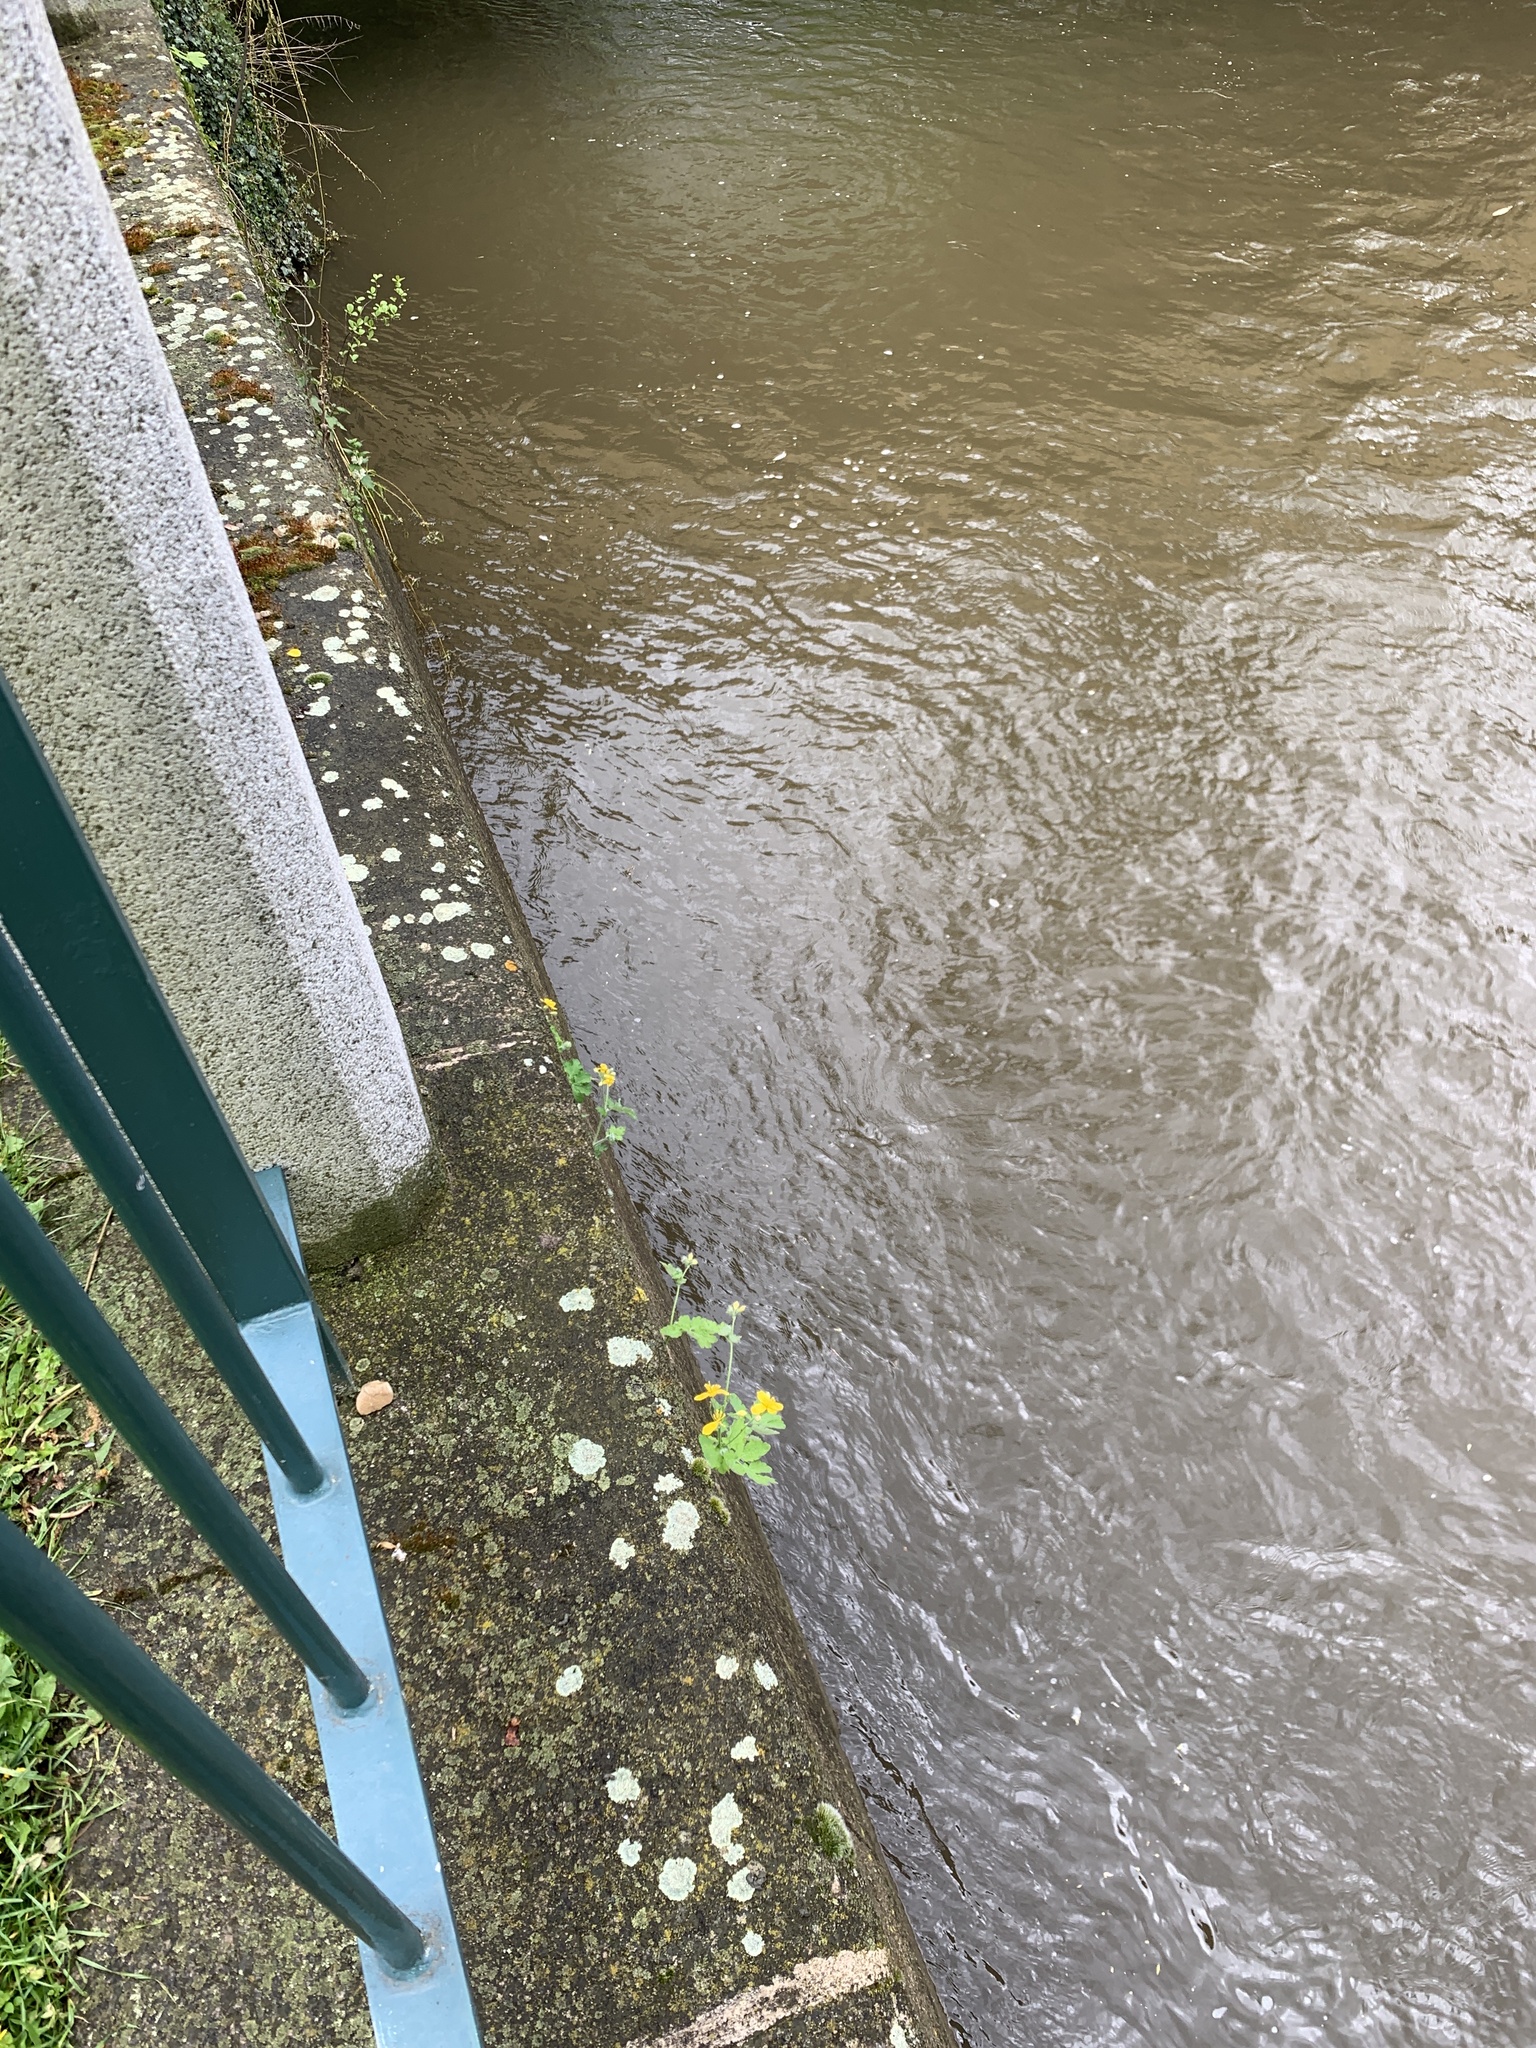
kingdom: Plantae
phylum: Tracheophyta
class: Magnoliopsida
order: Ranunculales
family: Papaveraceae
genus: Chelidonium
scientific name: Chelidonium majus
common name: Greater celandine
